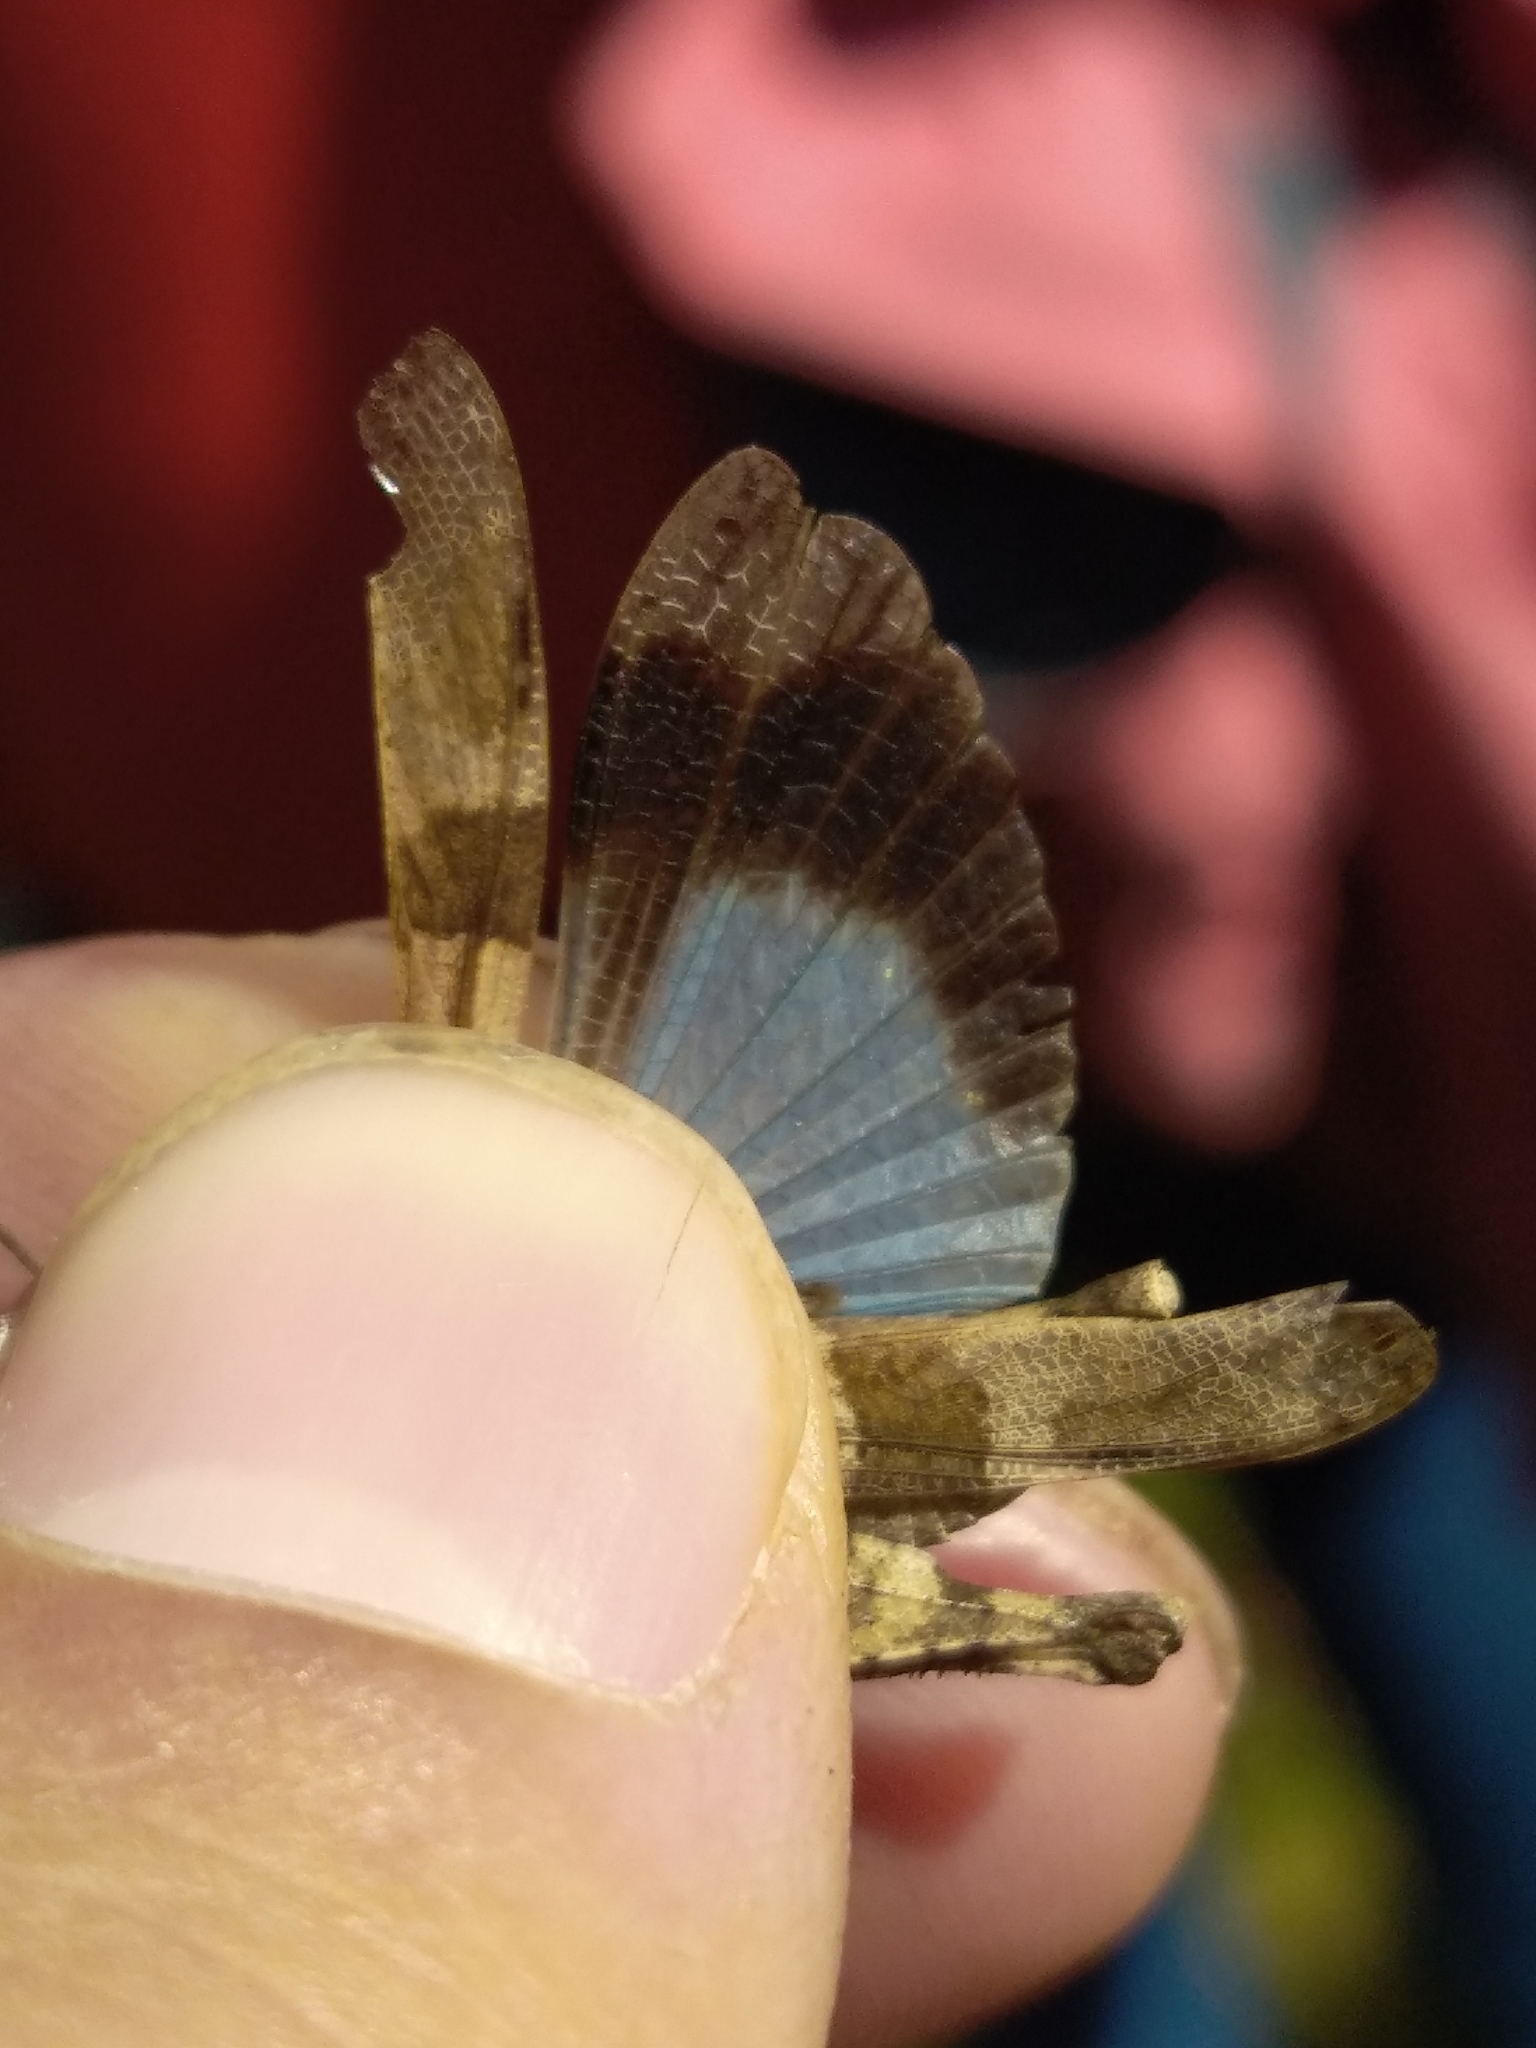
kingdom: Animalia
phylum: Arthropoda
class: Insecta
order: Orthoptera
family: Acrididae
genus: Oedipoda
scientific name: Oedipoda caerulescens
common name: Blue-winged grasshopper
